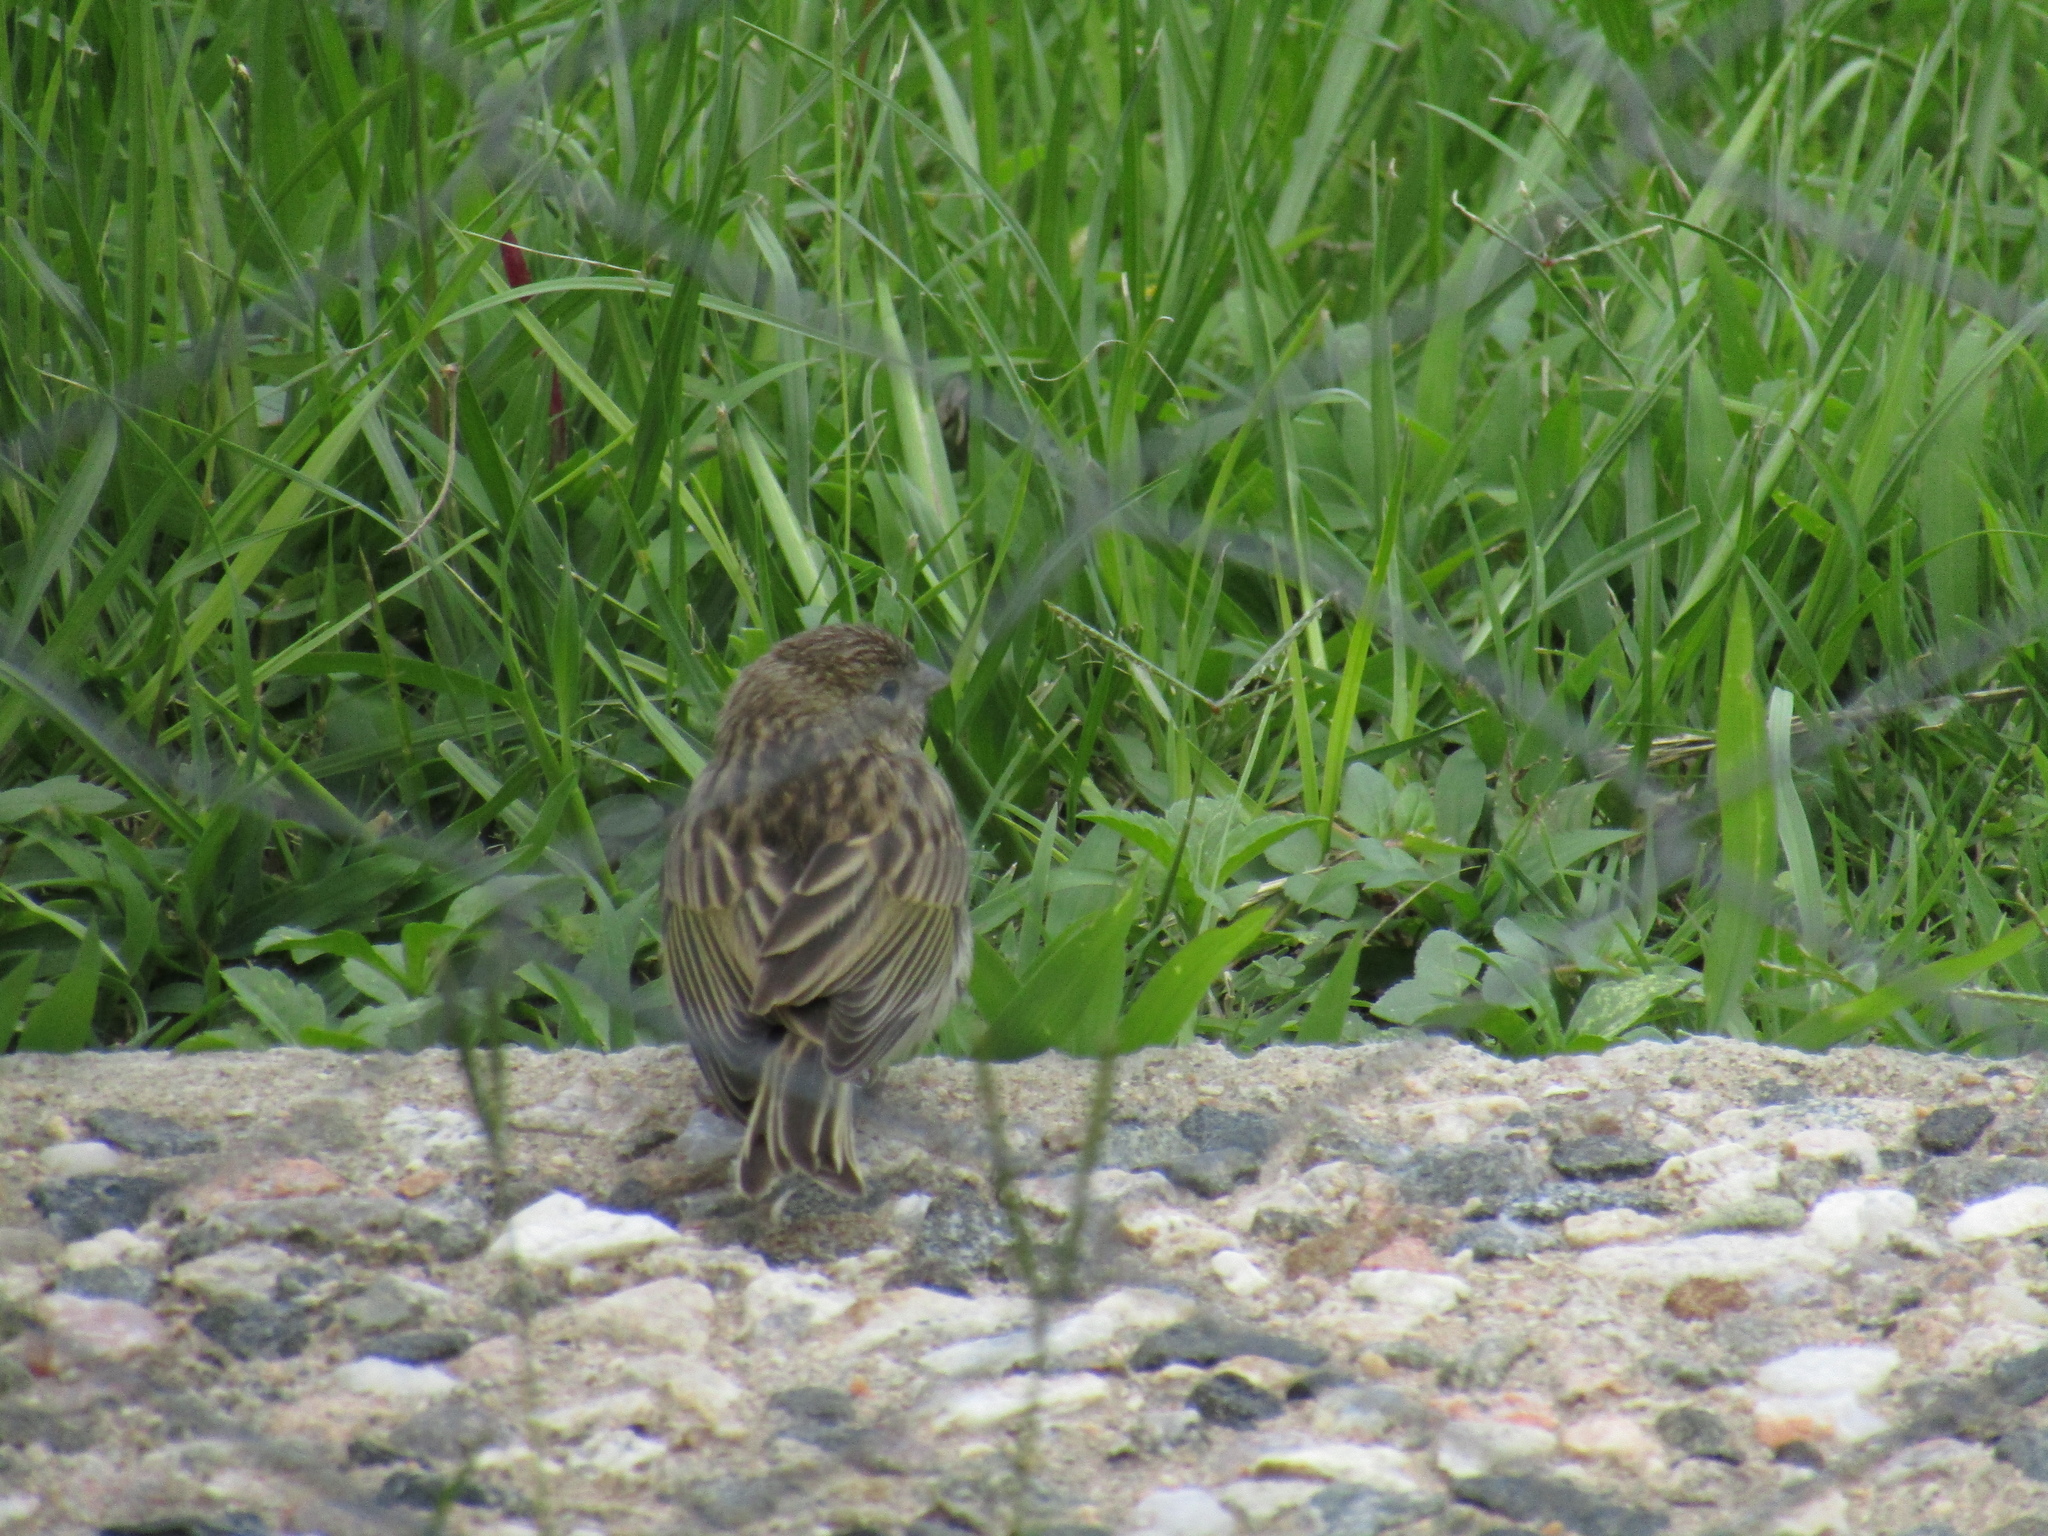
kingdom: Animalia
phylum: Chordata
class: Aves
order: Passeriformes
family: Thraupidae
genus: Sicalis
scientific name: Sicalis flaveola
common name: Saffron finch
